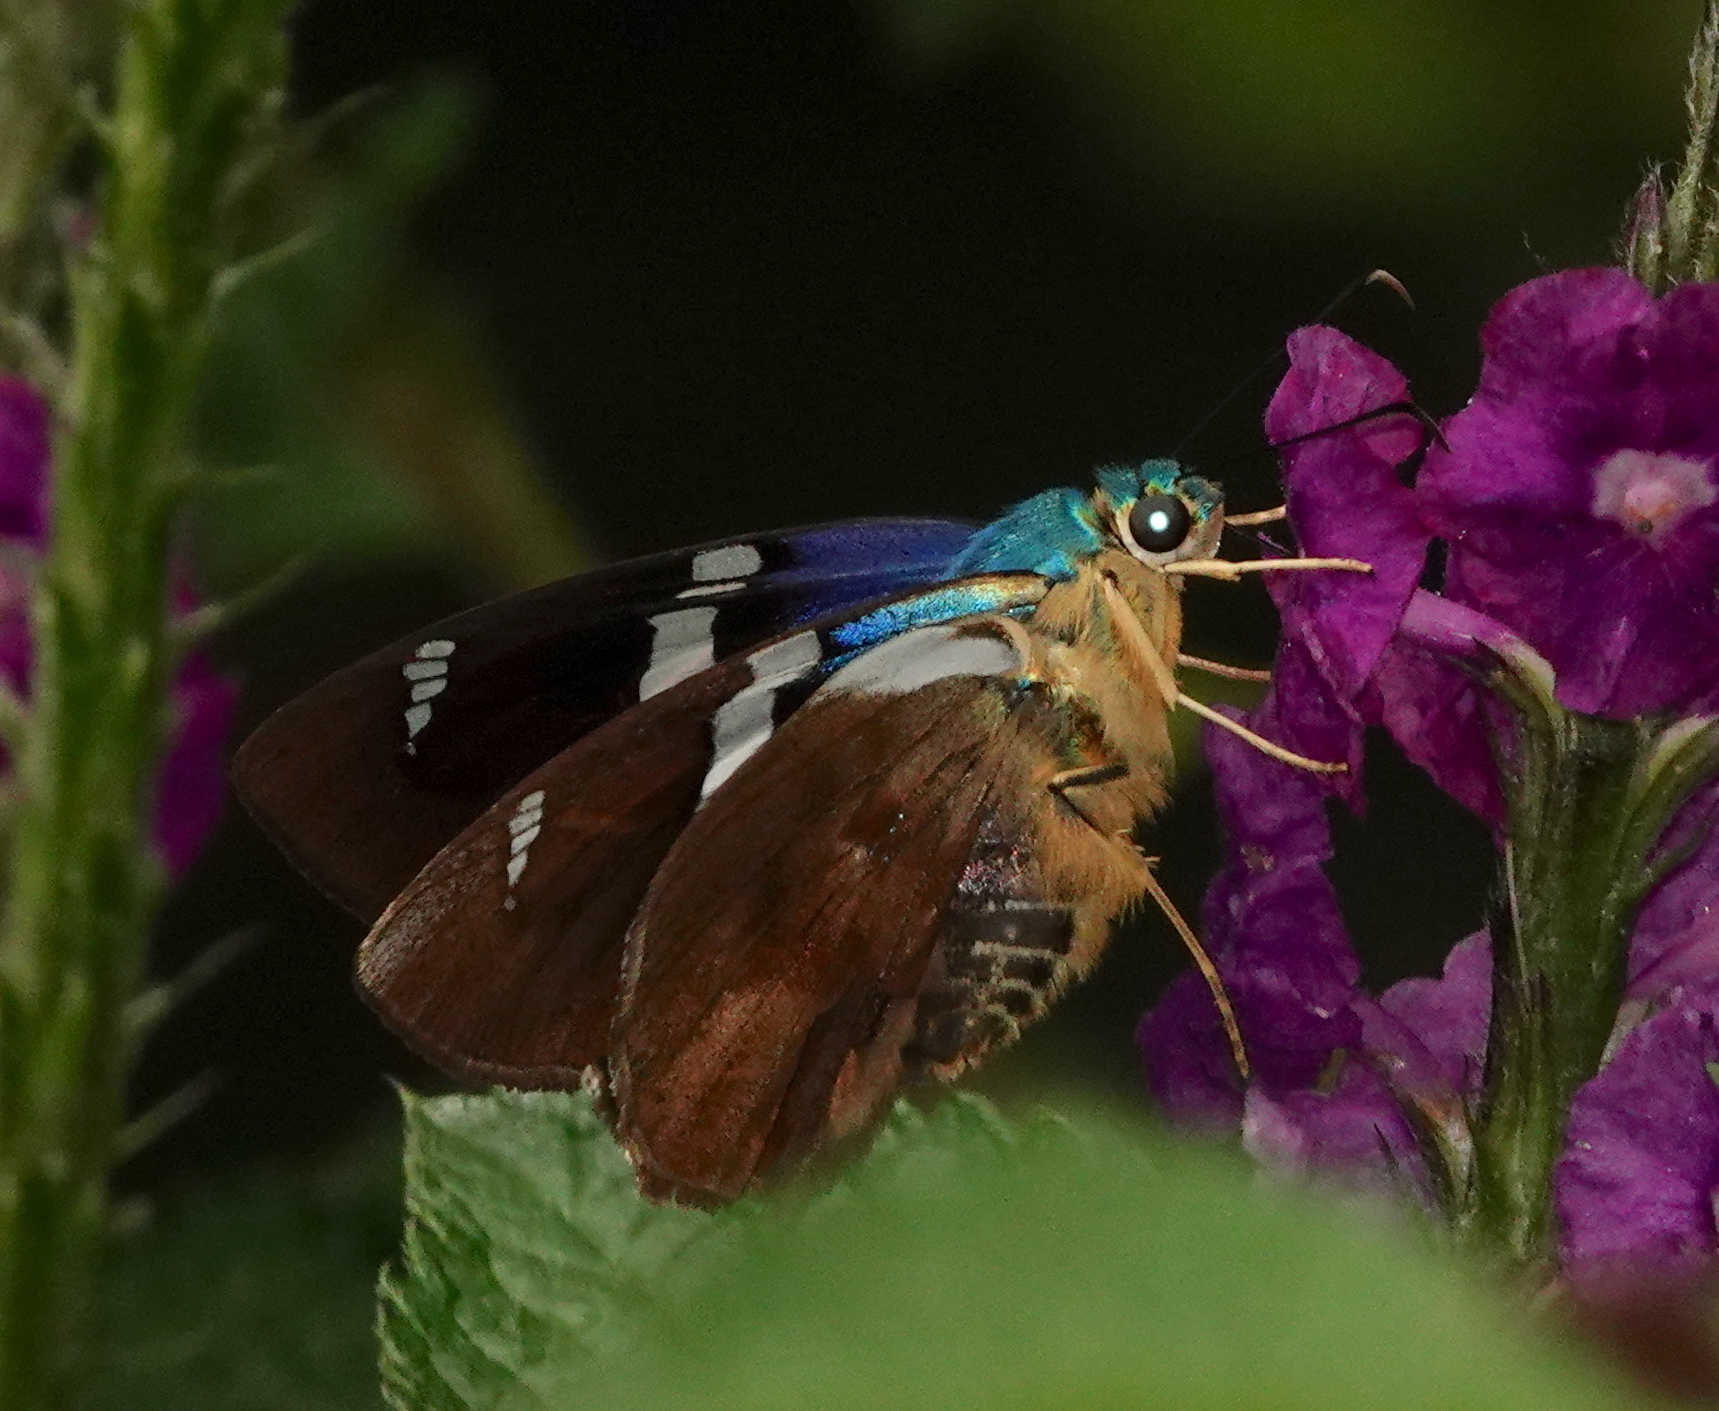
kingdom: Animalia
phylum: Arthropoda
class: Insecta
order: Lepidoptera
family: Hesperiidae
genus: Astraptes
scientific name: Astraptes fulgerator
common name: Two-barred flasher
